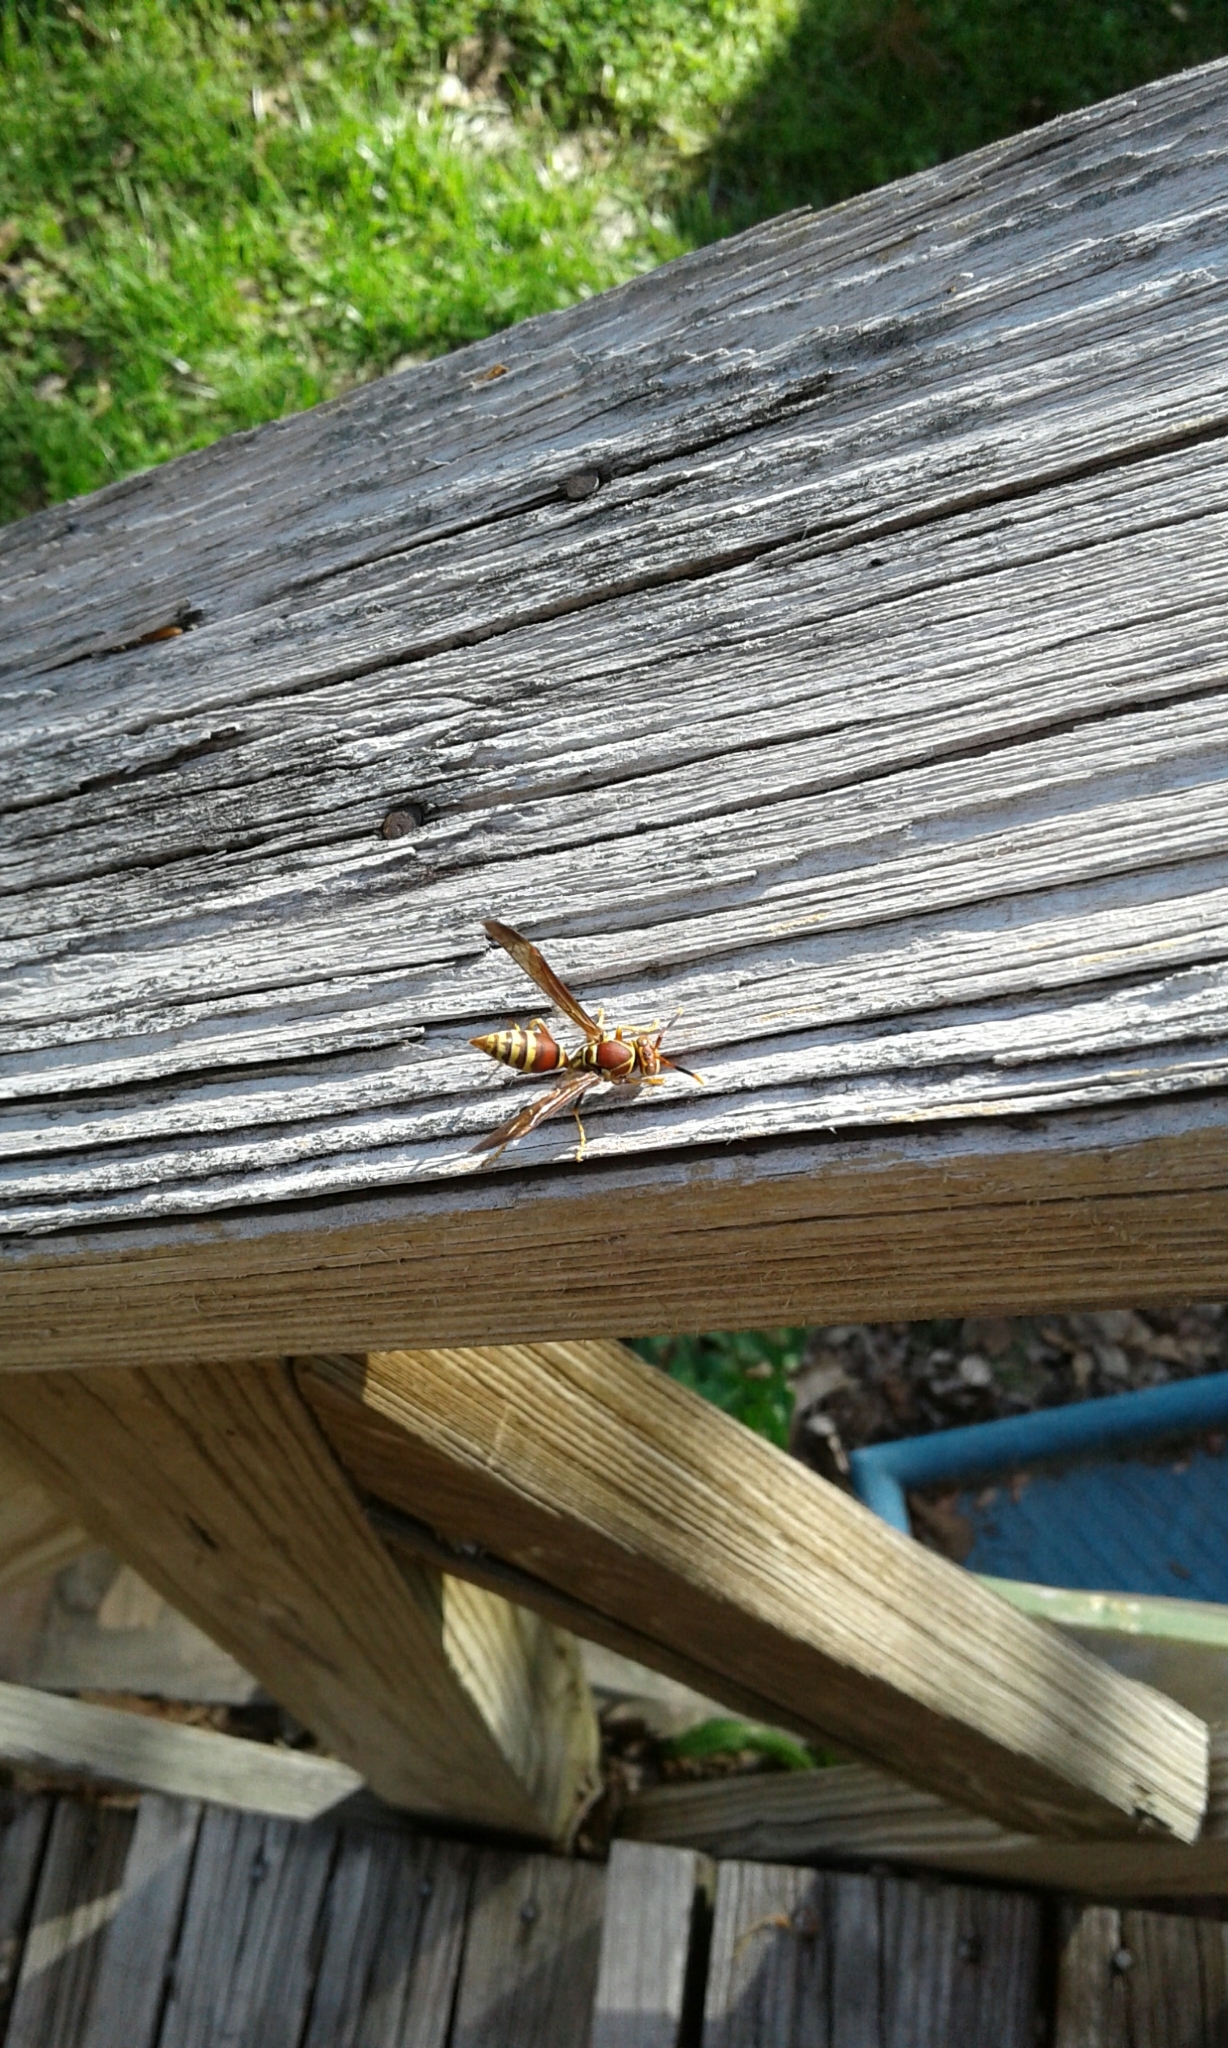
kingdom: Animalia
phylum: Arthropoda
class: Insecta
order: Hymenoptera
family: Eumenidae
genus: Polistes
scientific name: Polistes exclamans
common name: Paper wasp
